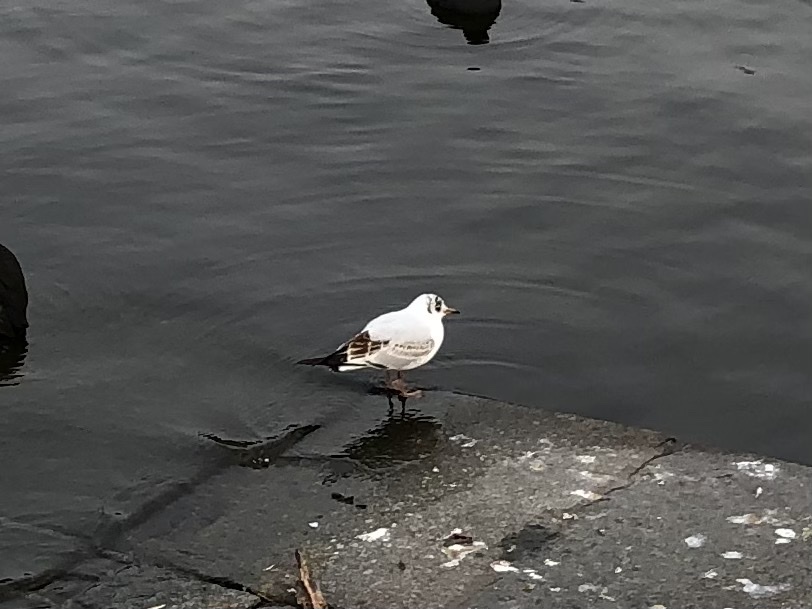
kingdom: Animalia
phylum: Chordata
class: Aves
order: Charadriiformes
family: Laridae
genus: Chroicocephalus
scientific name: Chroicocephalus ridibundus
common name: Black-headed gull
